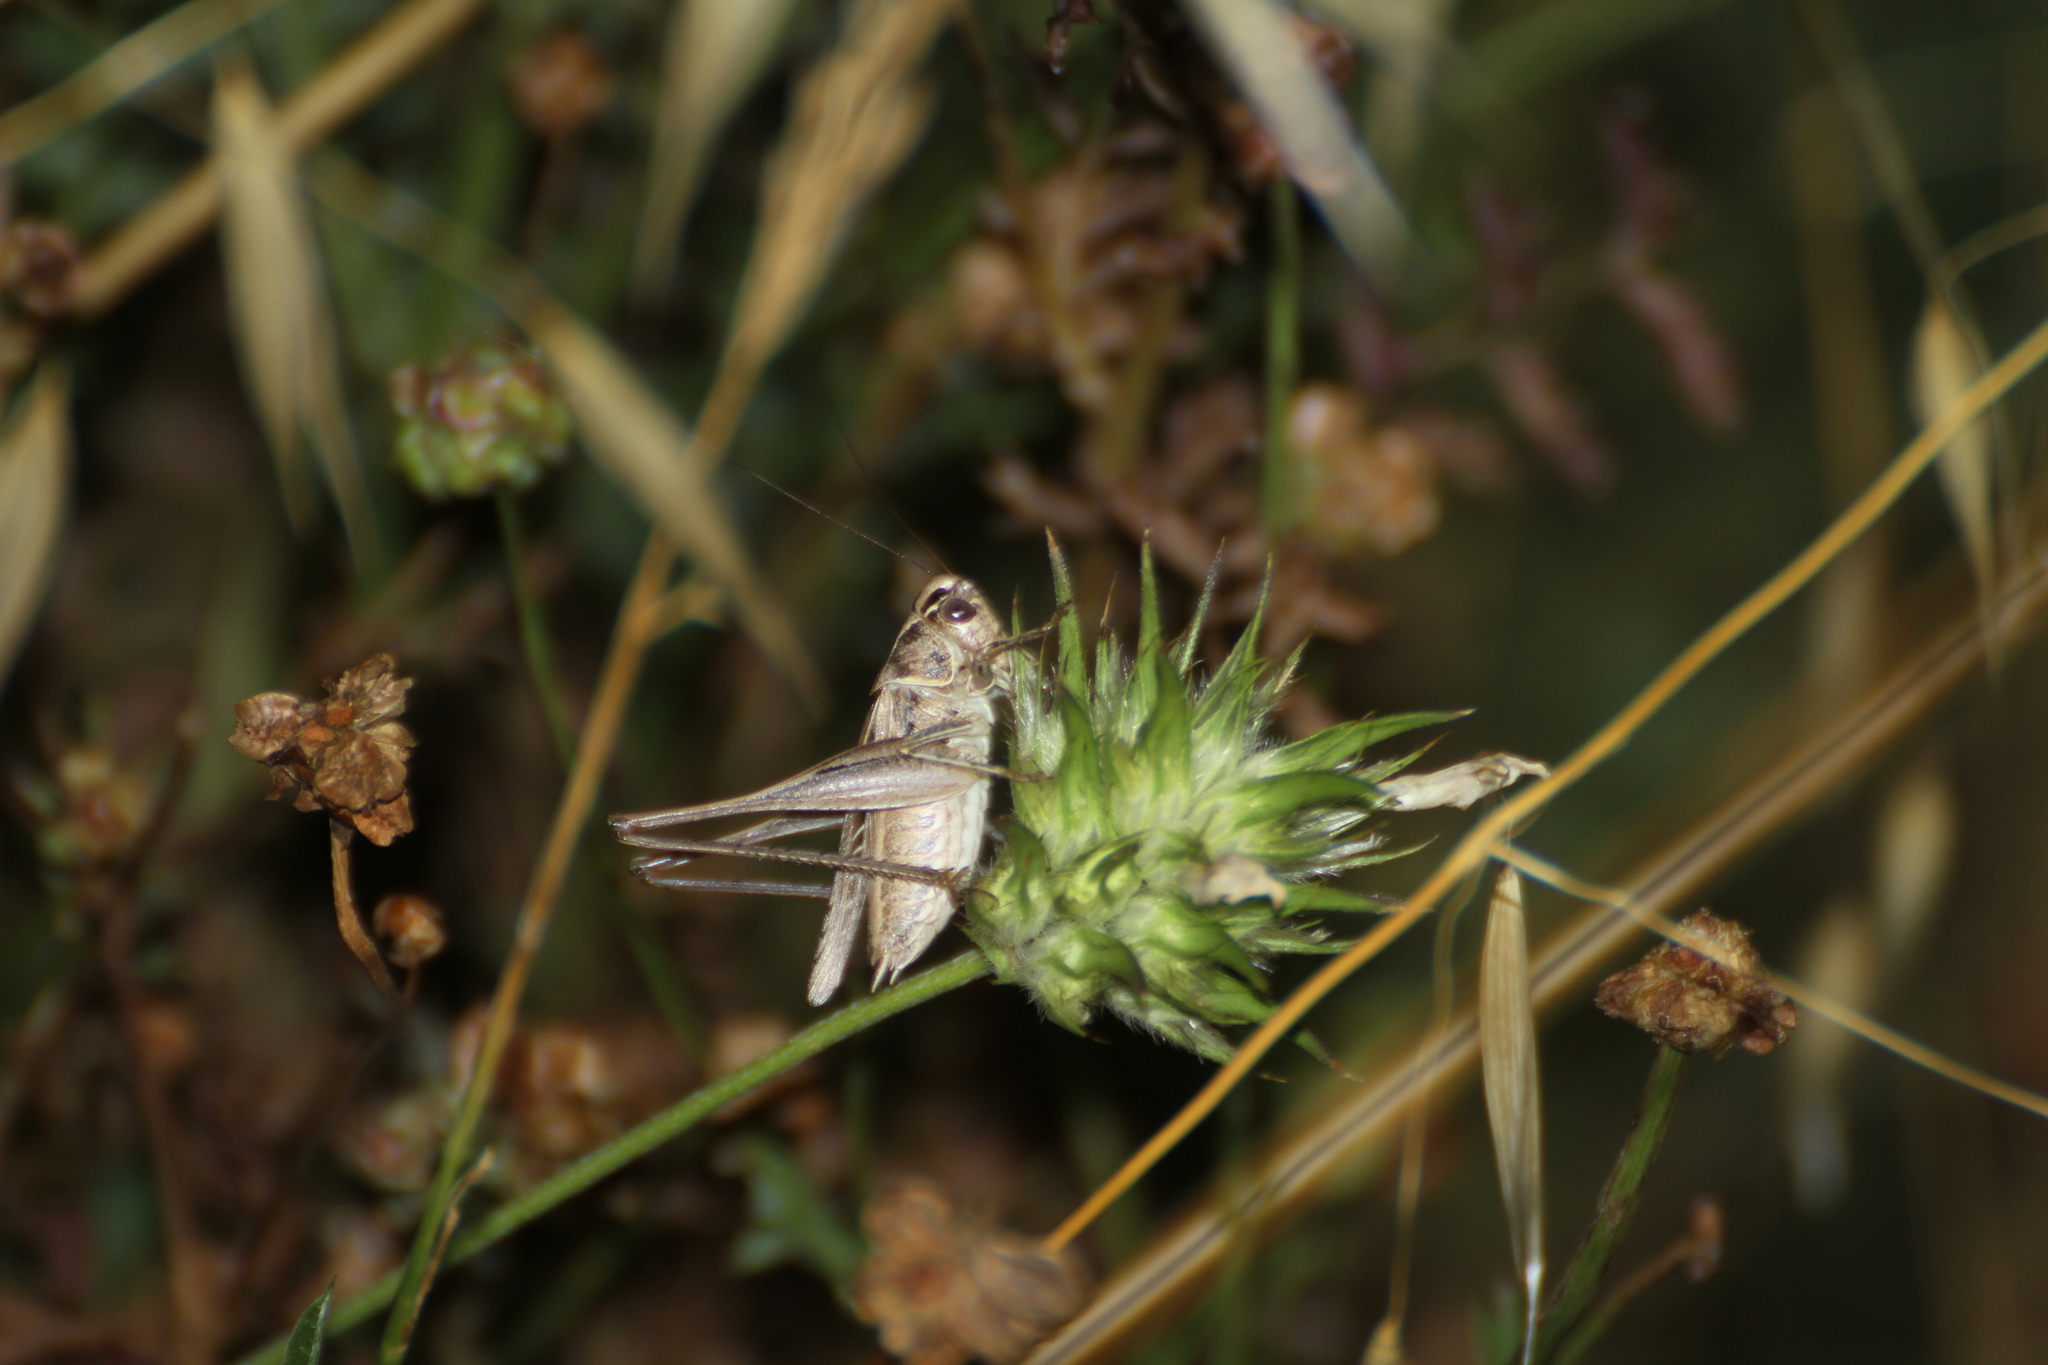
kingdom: Animalia
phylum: Arthropoda
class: Insecta
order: Orthoptera
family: Tettigoniidae
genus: Tessellana
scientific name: Tessellana tessellata
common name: Grasshopper
